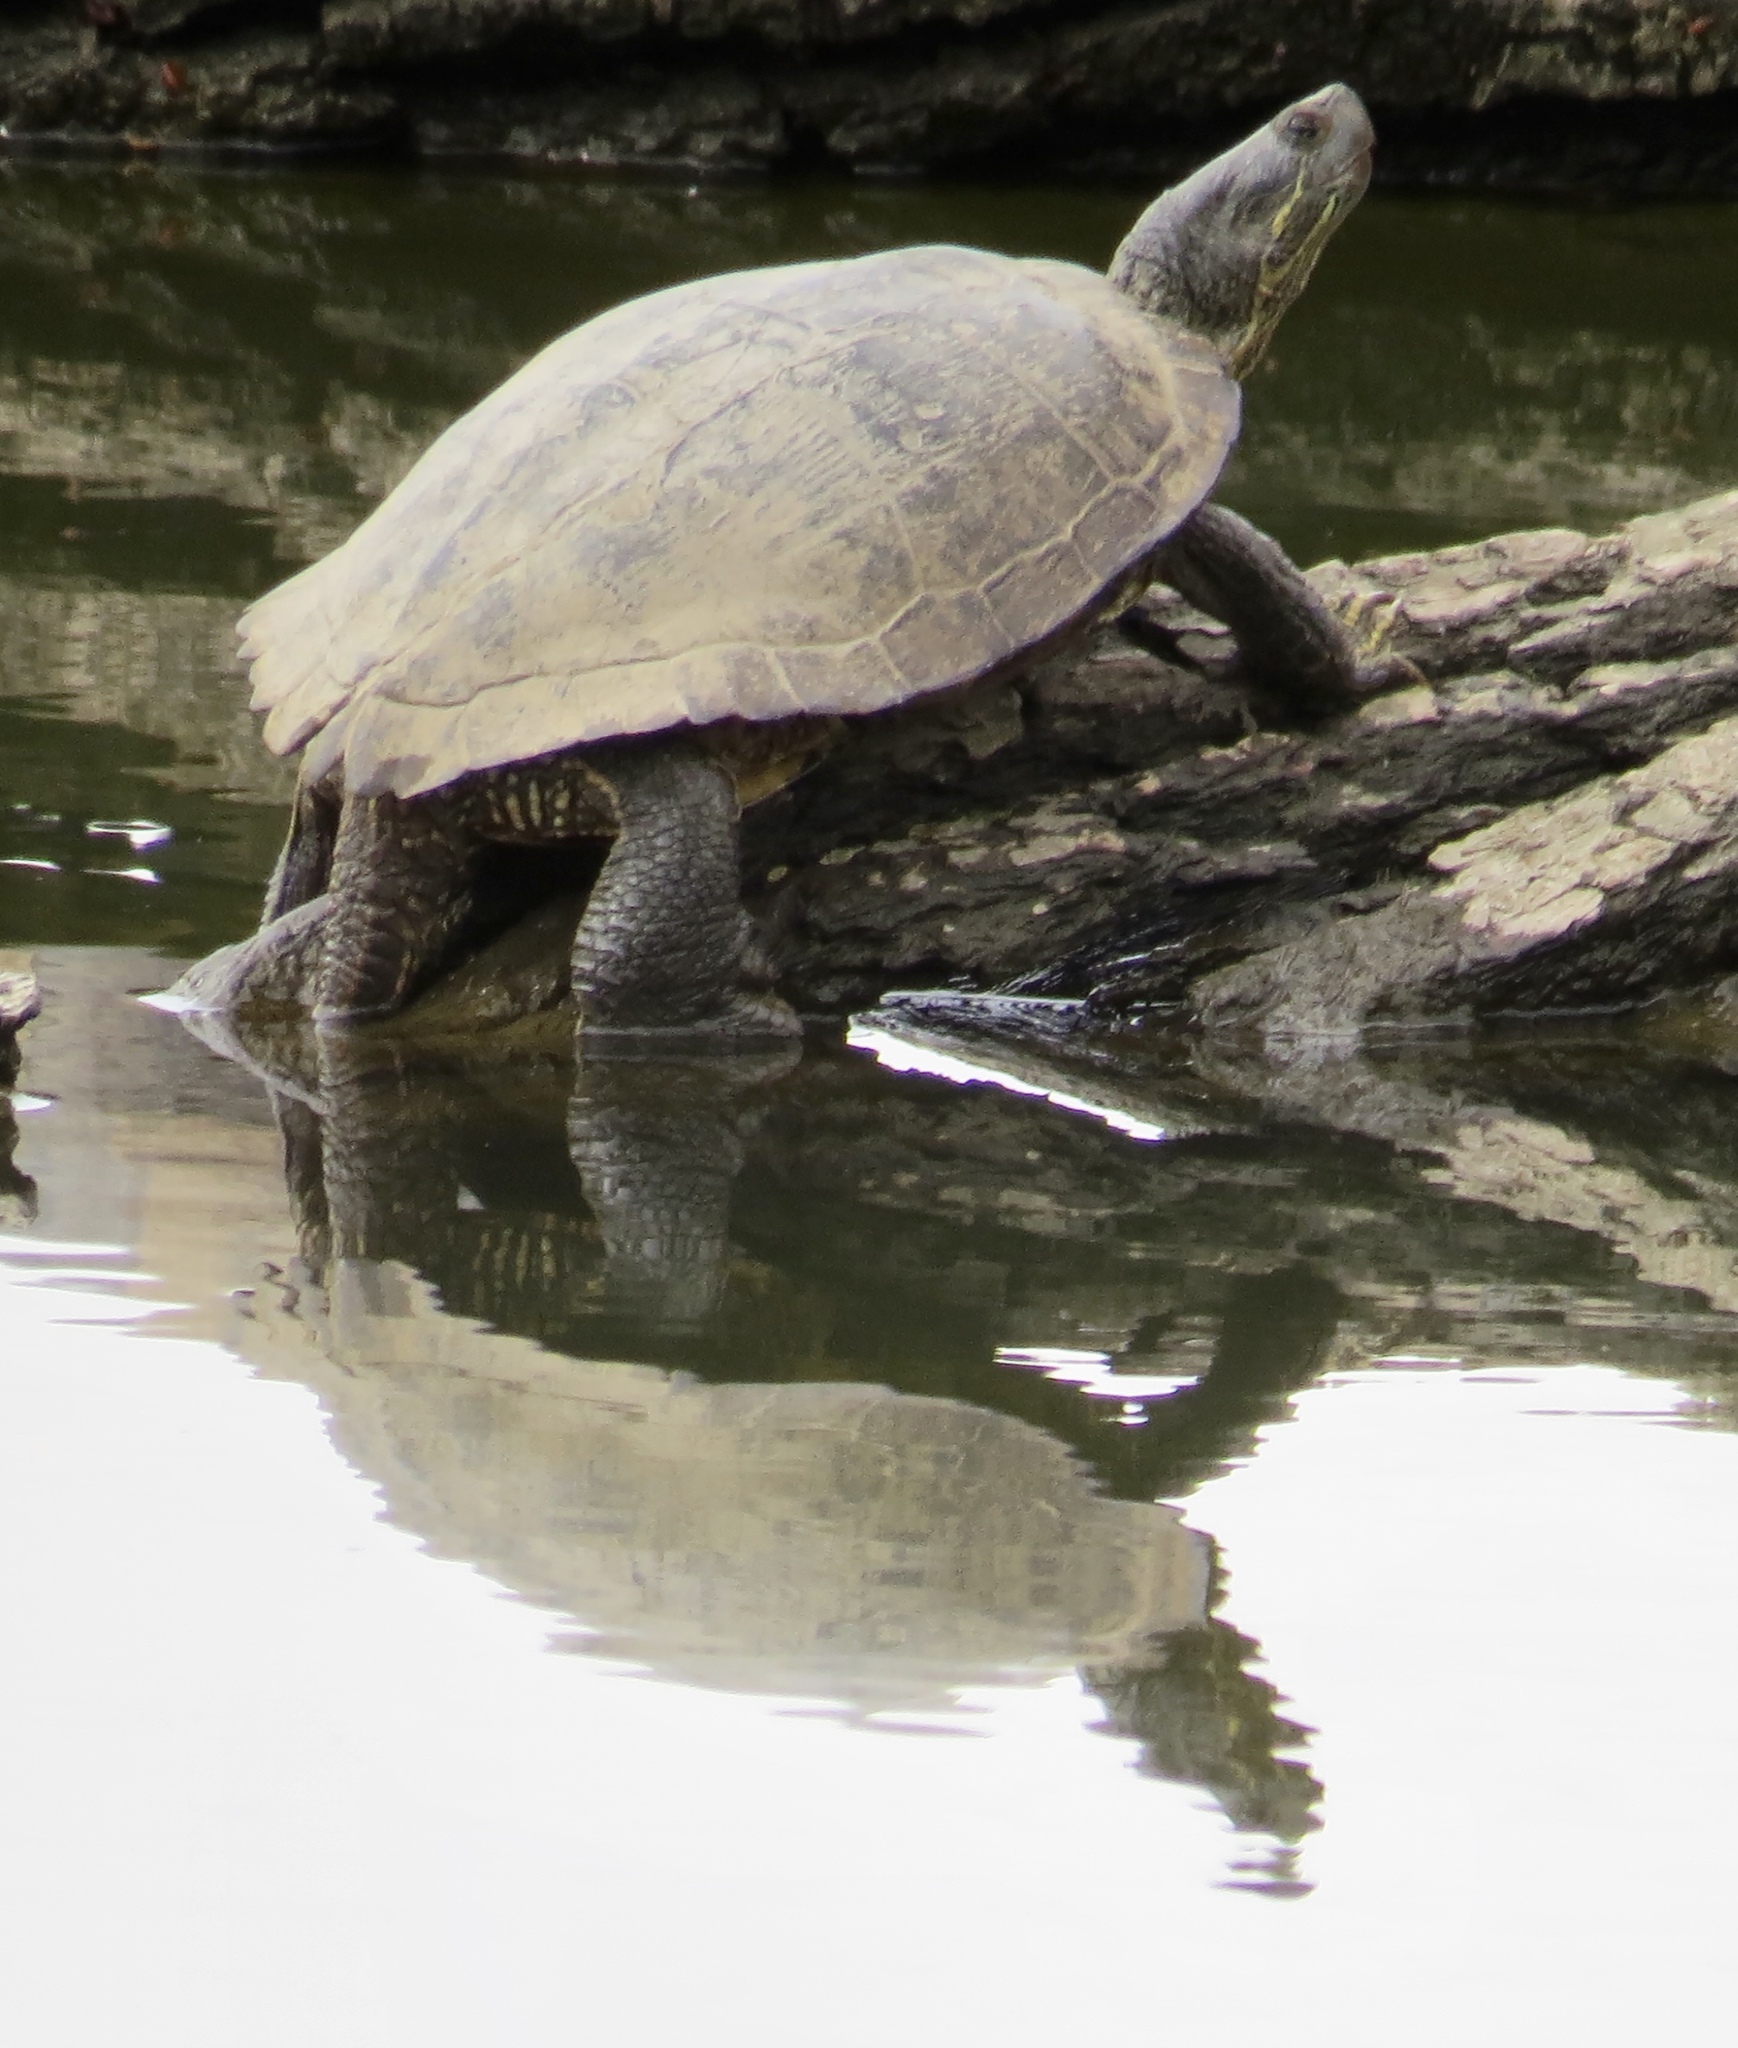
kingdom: Animalia
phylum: Chordata
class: Testudines
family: Emydidae
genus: Trachemys
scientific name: Trachemys scripta
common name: Slider
